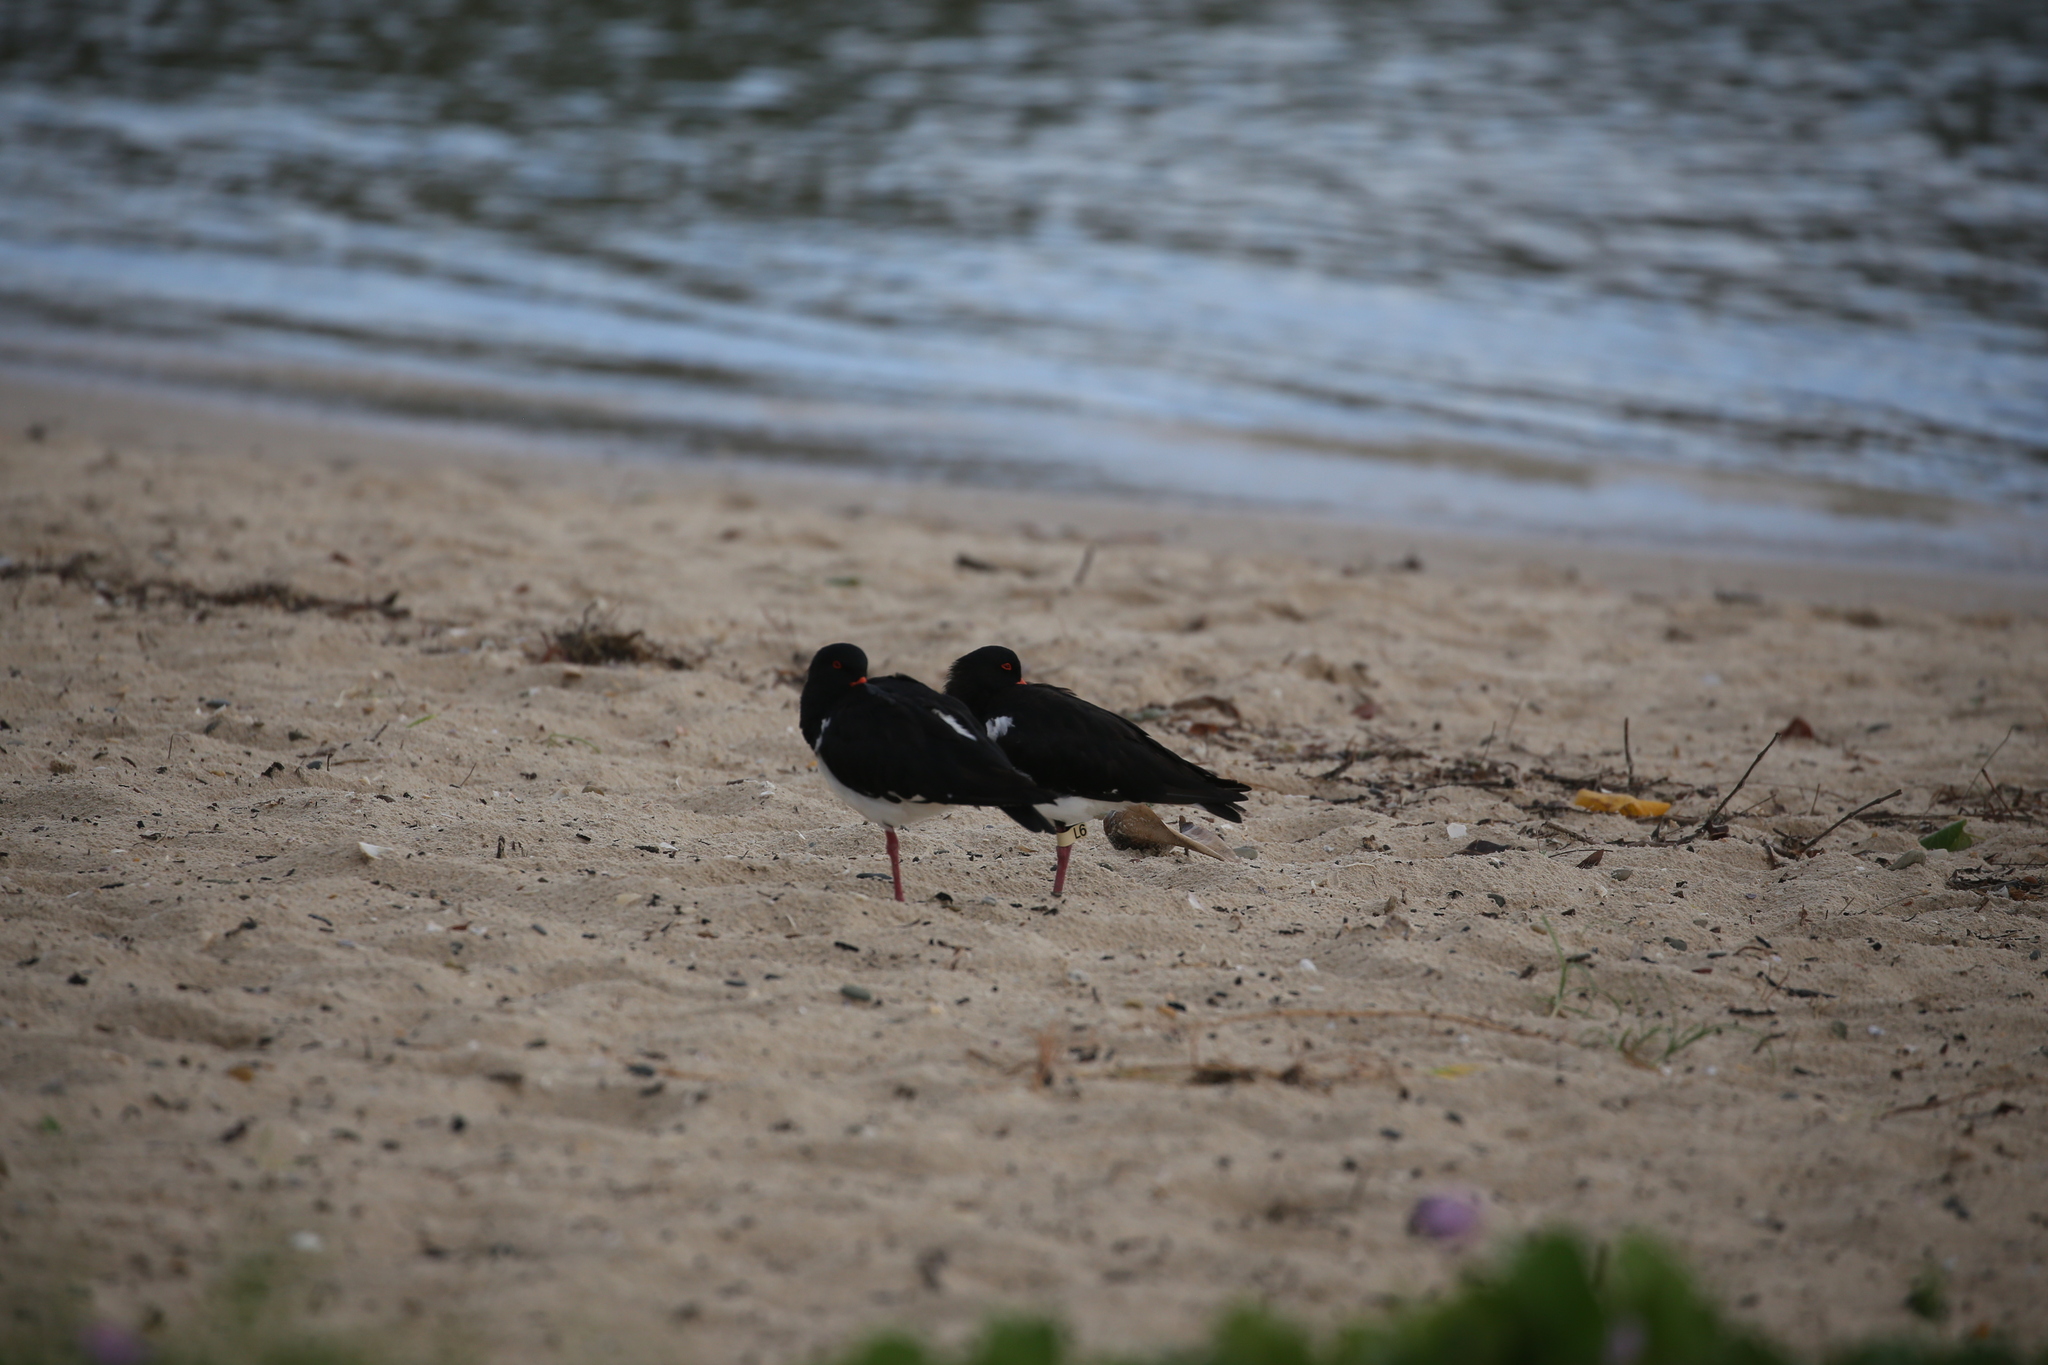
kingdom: Animalia
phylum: Chordata
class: Aves
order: Charadriiformes
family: Haematopodidae
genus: Haematopus
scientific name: Haematopus longirostris
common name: Pied oystercatcher
